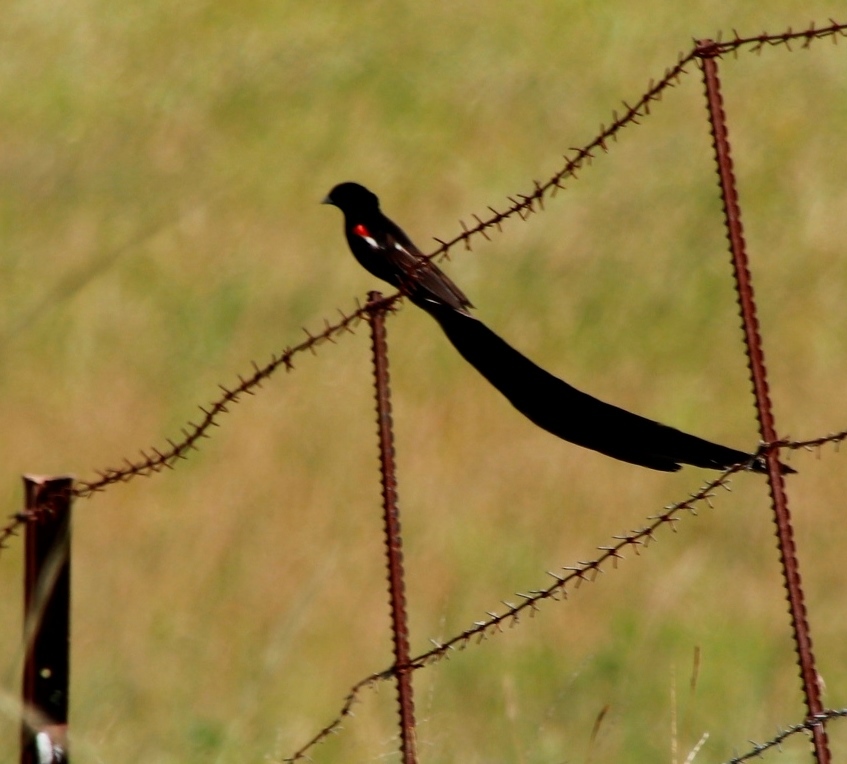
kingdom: Animalia
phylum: Chordata
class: Aves
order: Passeriformes
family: Ploceidae
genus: Euplectes
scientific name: Euplectes progne
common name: Long-tailed widowbird
